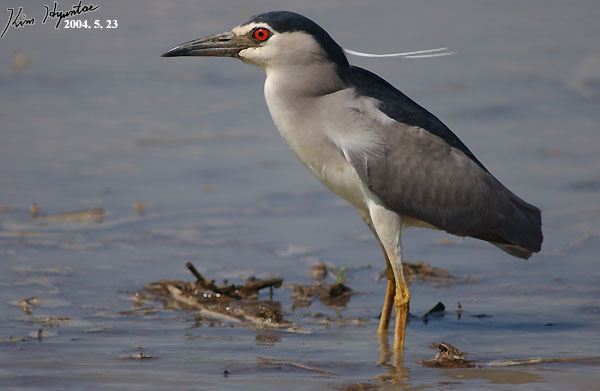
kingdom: Animalia
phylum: Chordata
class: Aves
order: Pelecaniformes
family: Ardeidae
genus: Nycticorax
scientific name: Nycticorax nycticorax
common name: Black-crowned night heron
